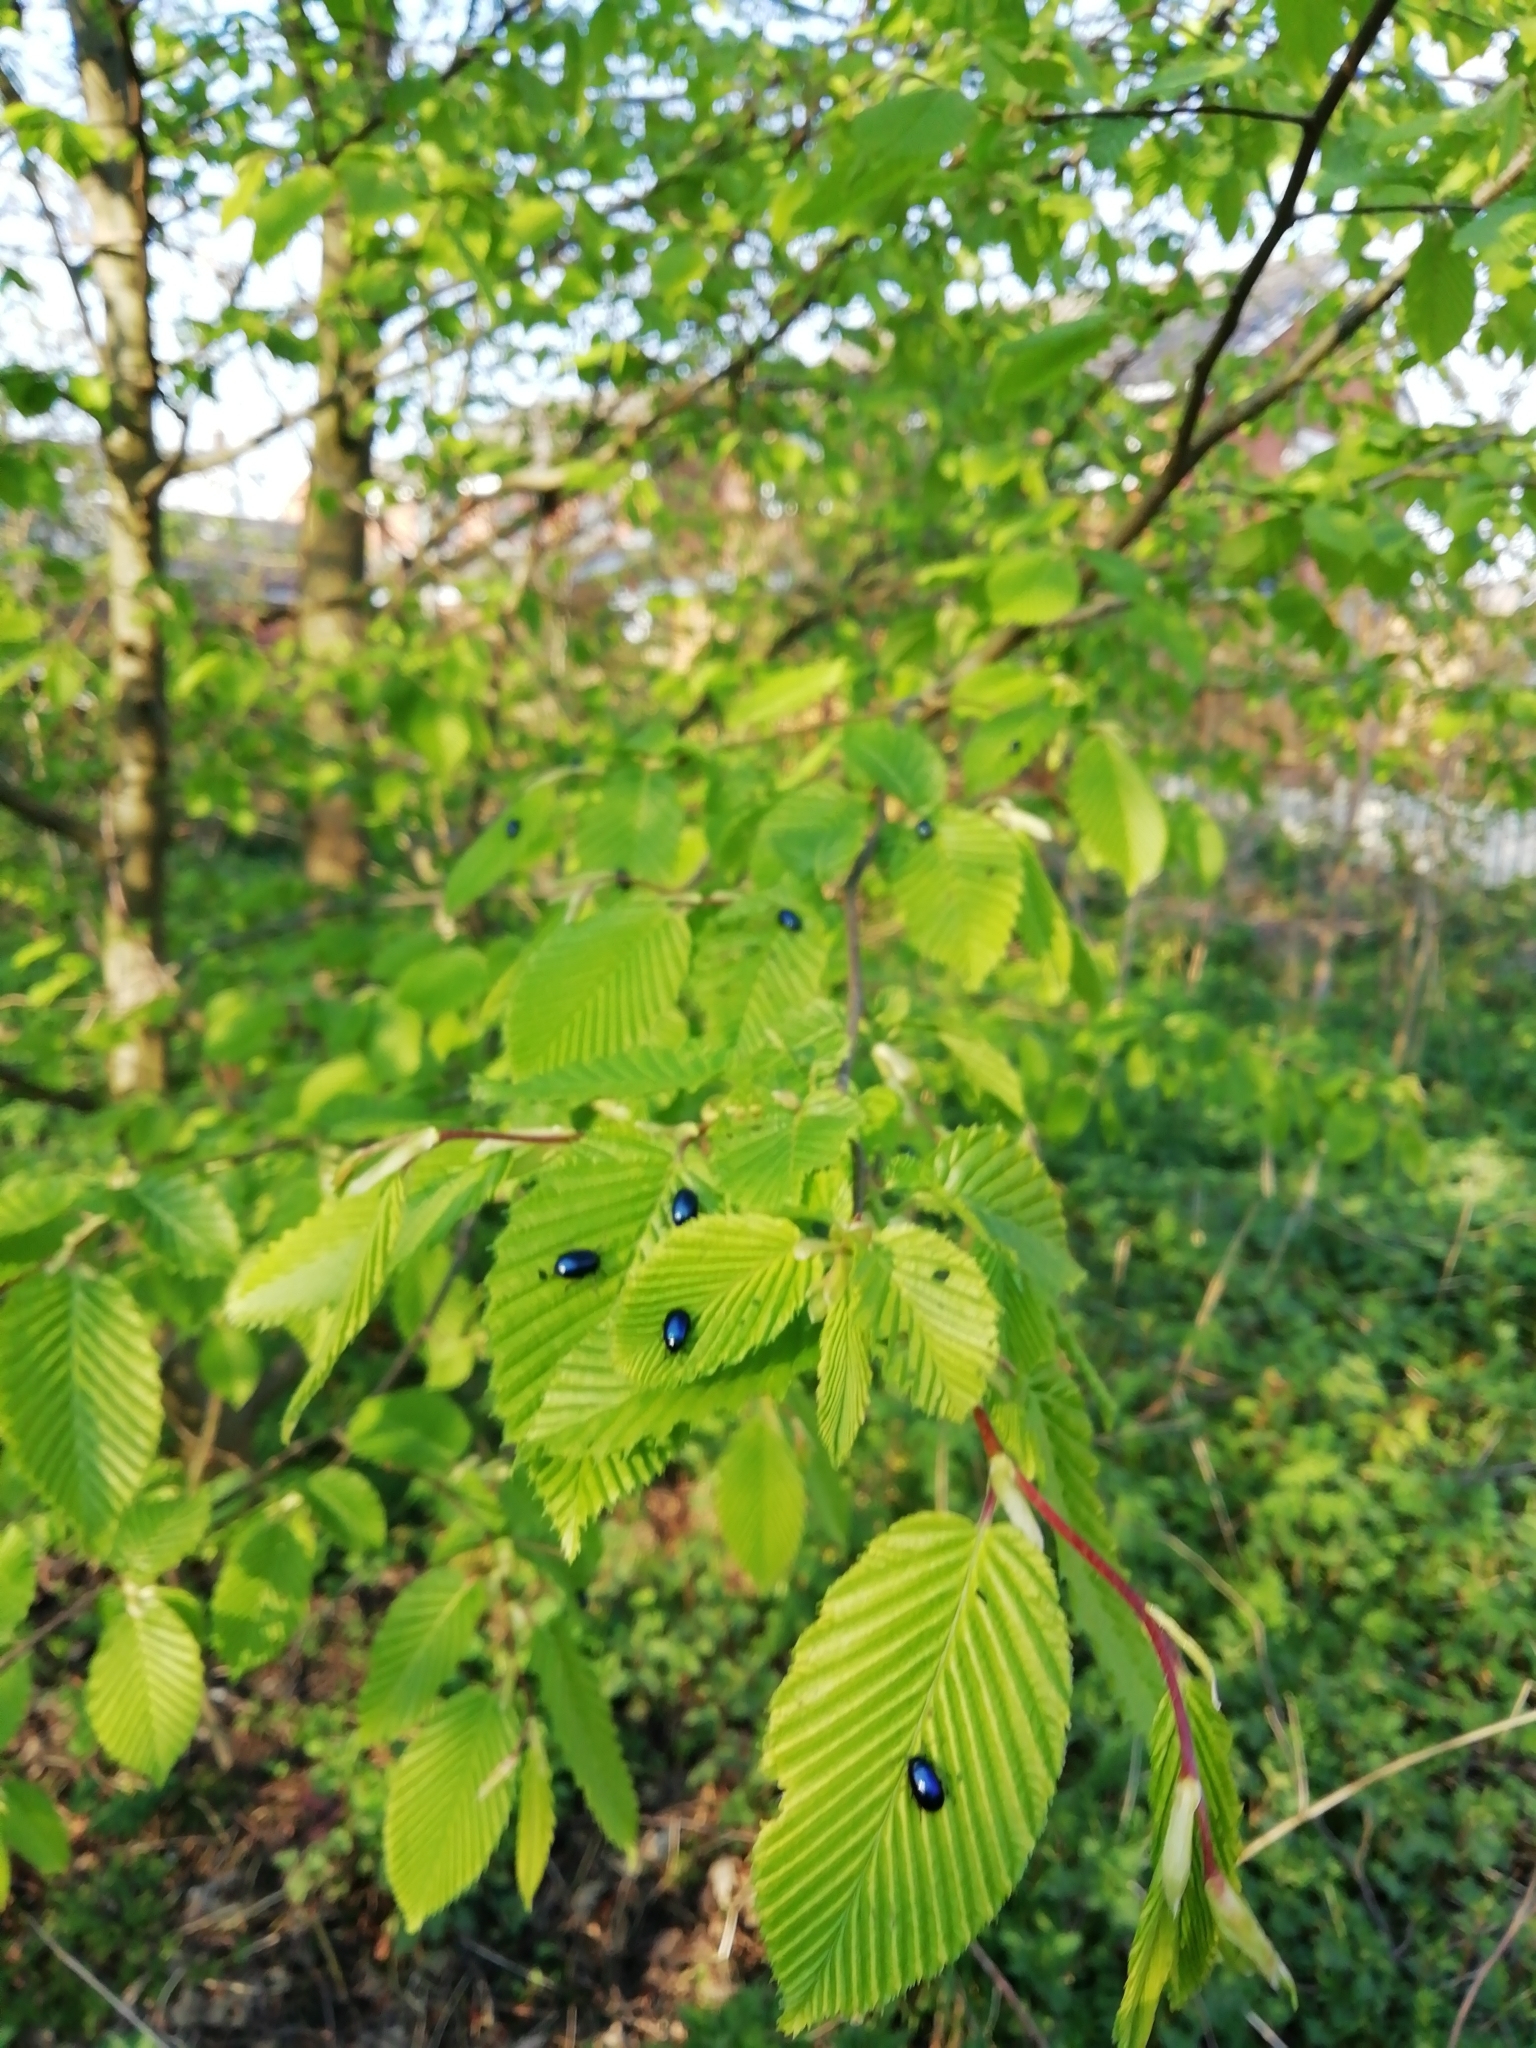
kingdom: Animalia
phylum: Arthropoda
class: Insecta
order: Coleoptera
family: Chrysomelidae
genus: Agelastica
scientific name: Agelastica alni
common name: Alder leaf beetle
